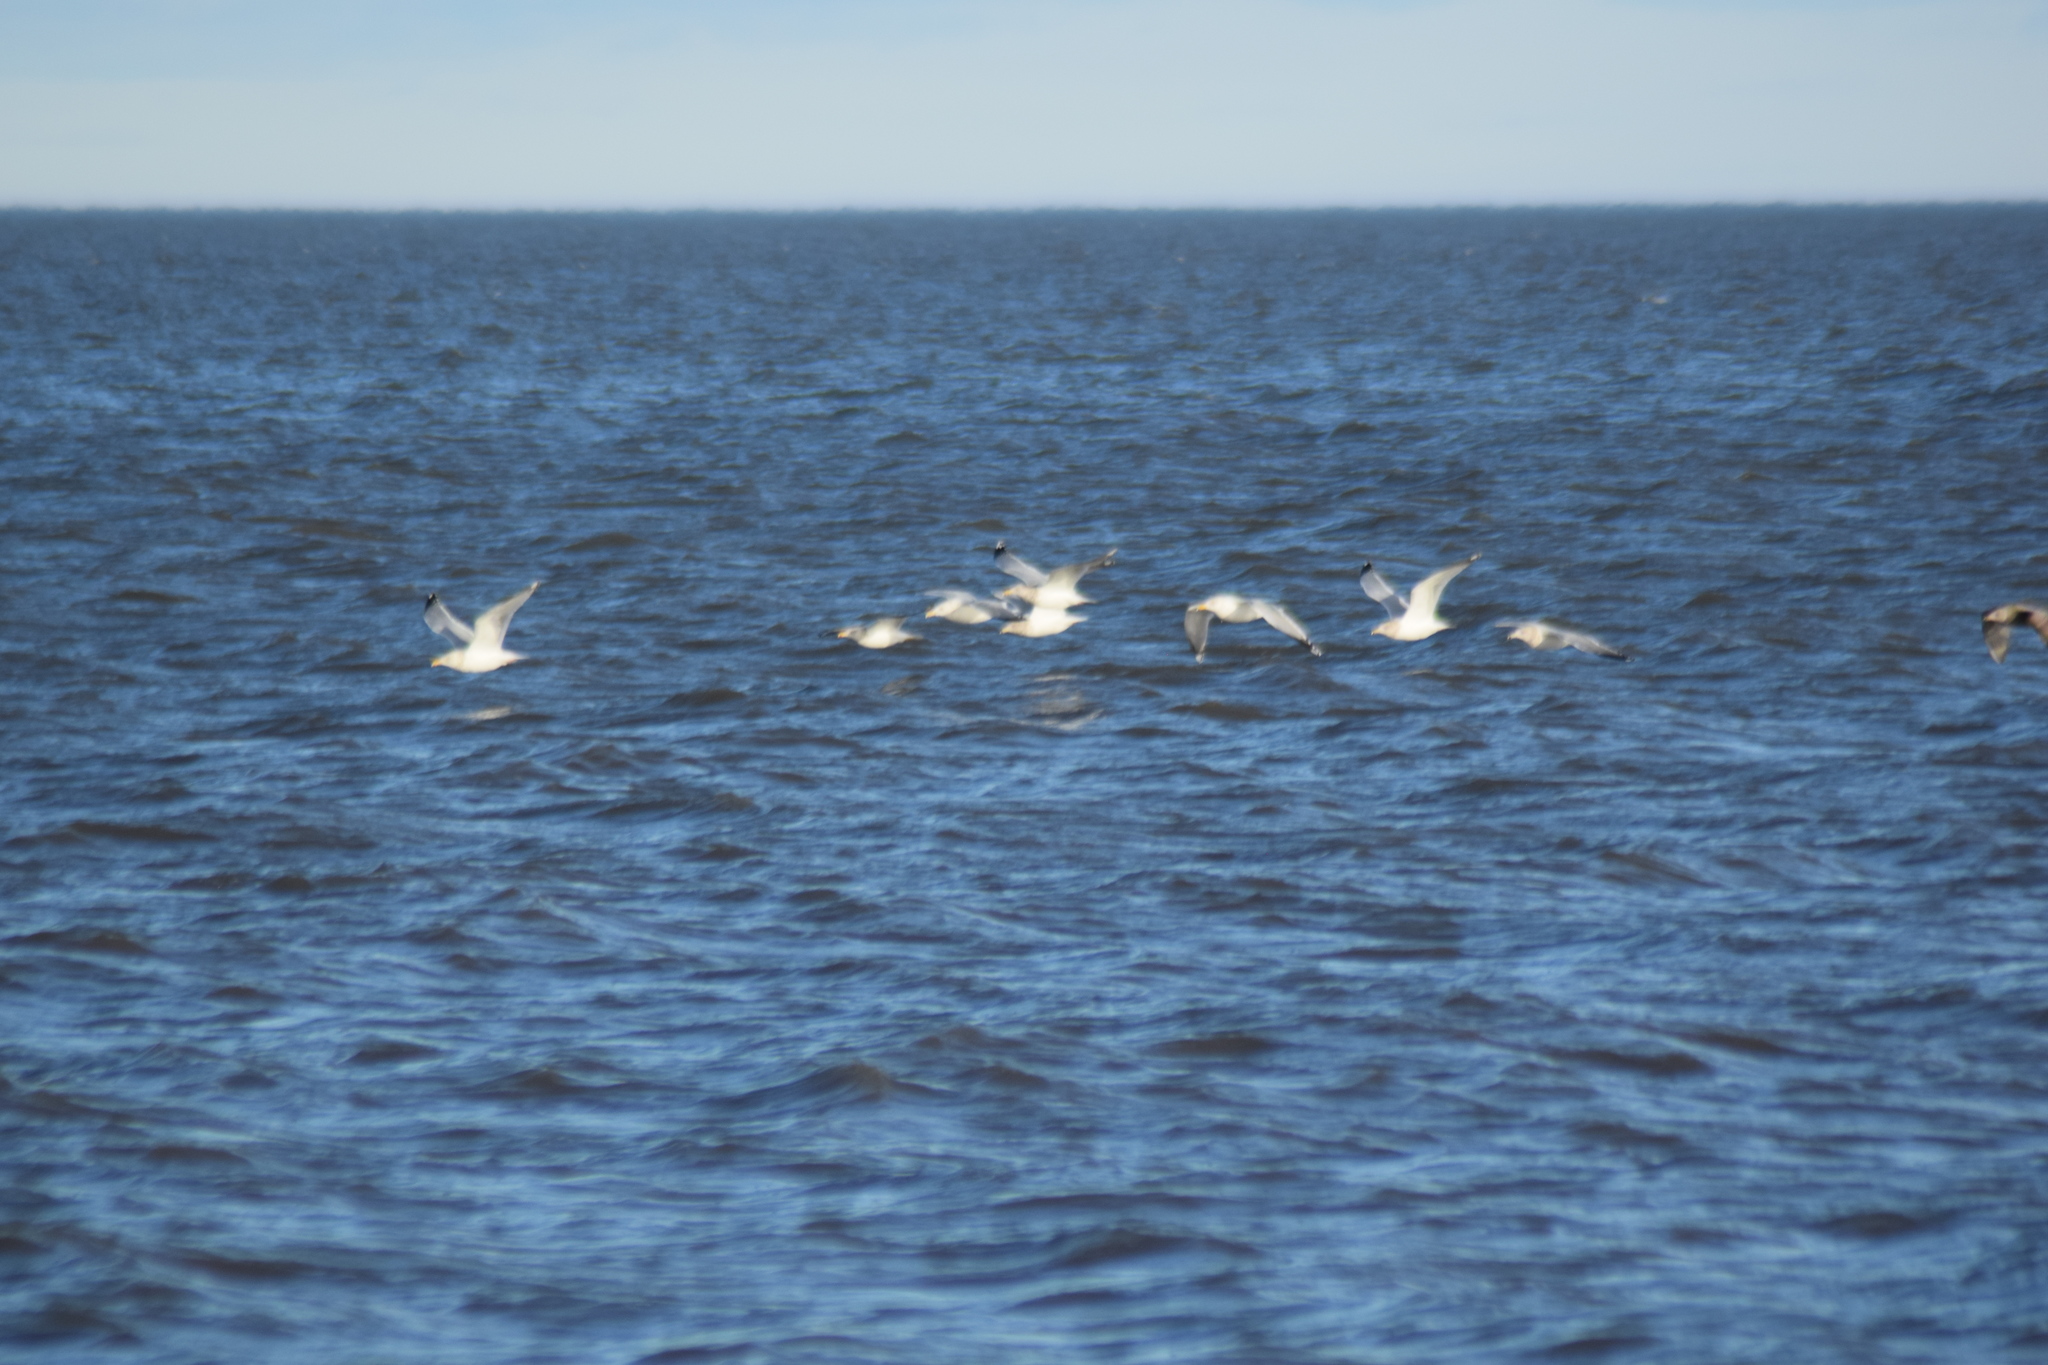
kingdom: Animalia
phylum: Chordata
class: Aves
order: Charadriiformes
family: Laridae
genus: Larus
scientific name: Larus argentatus
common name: Herring gull
